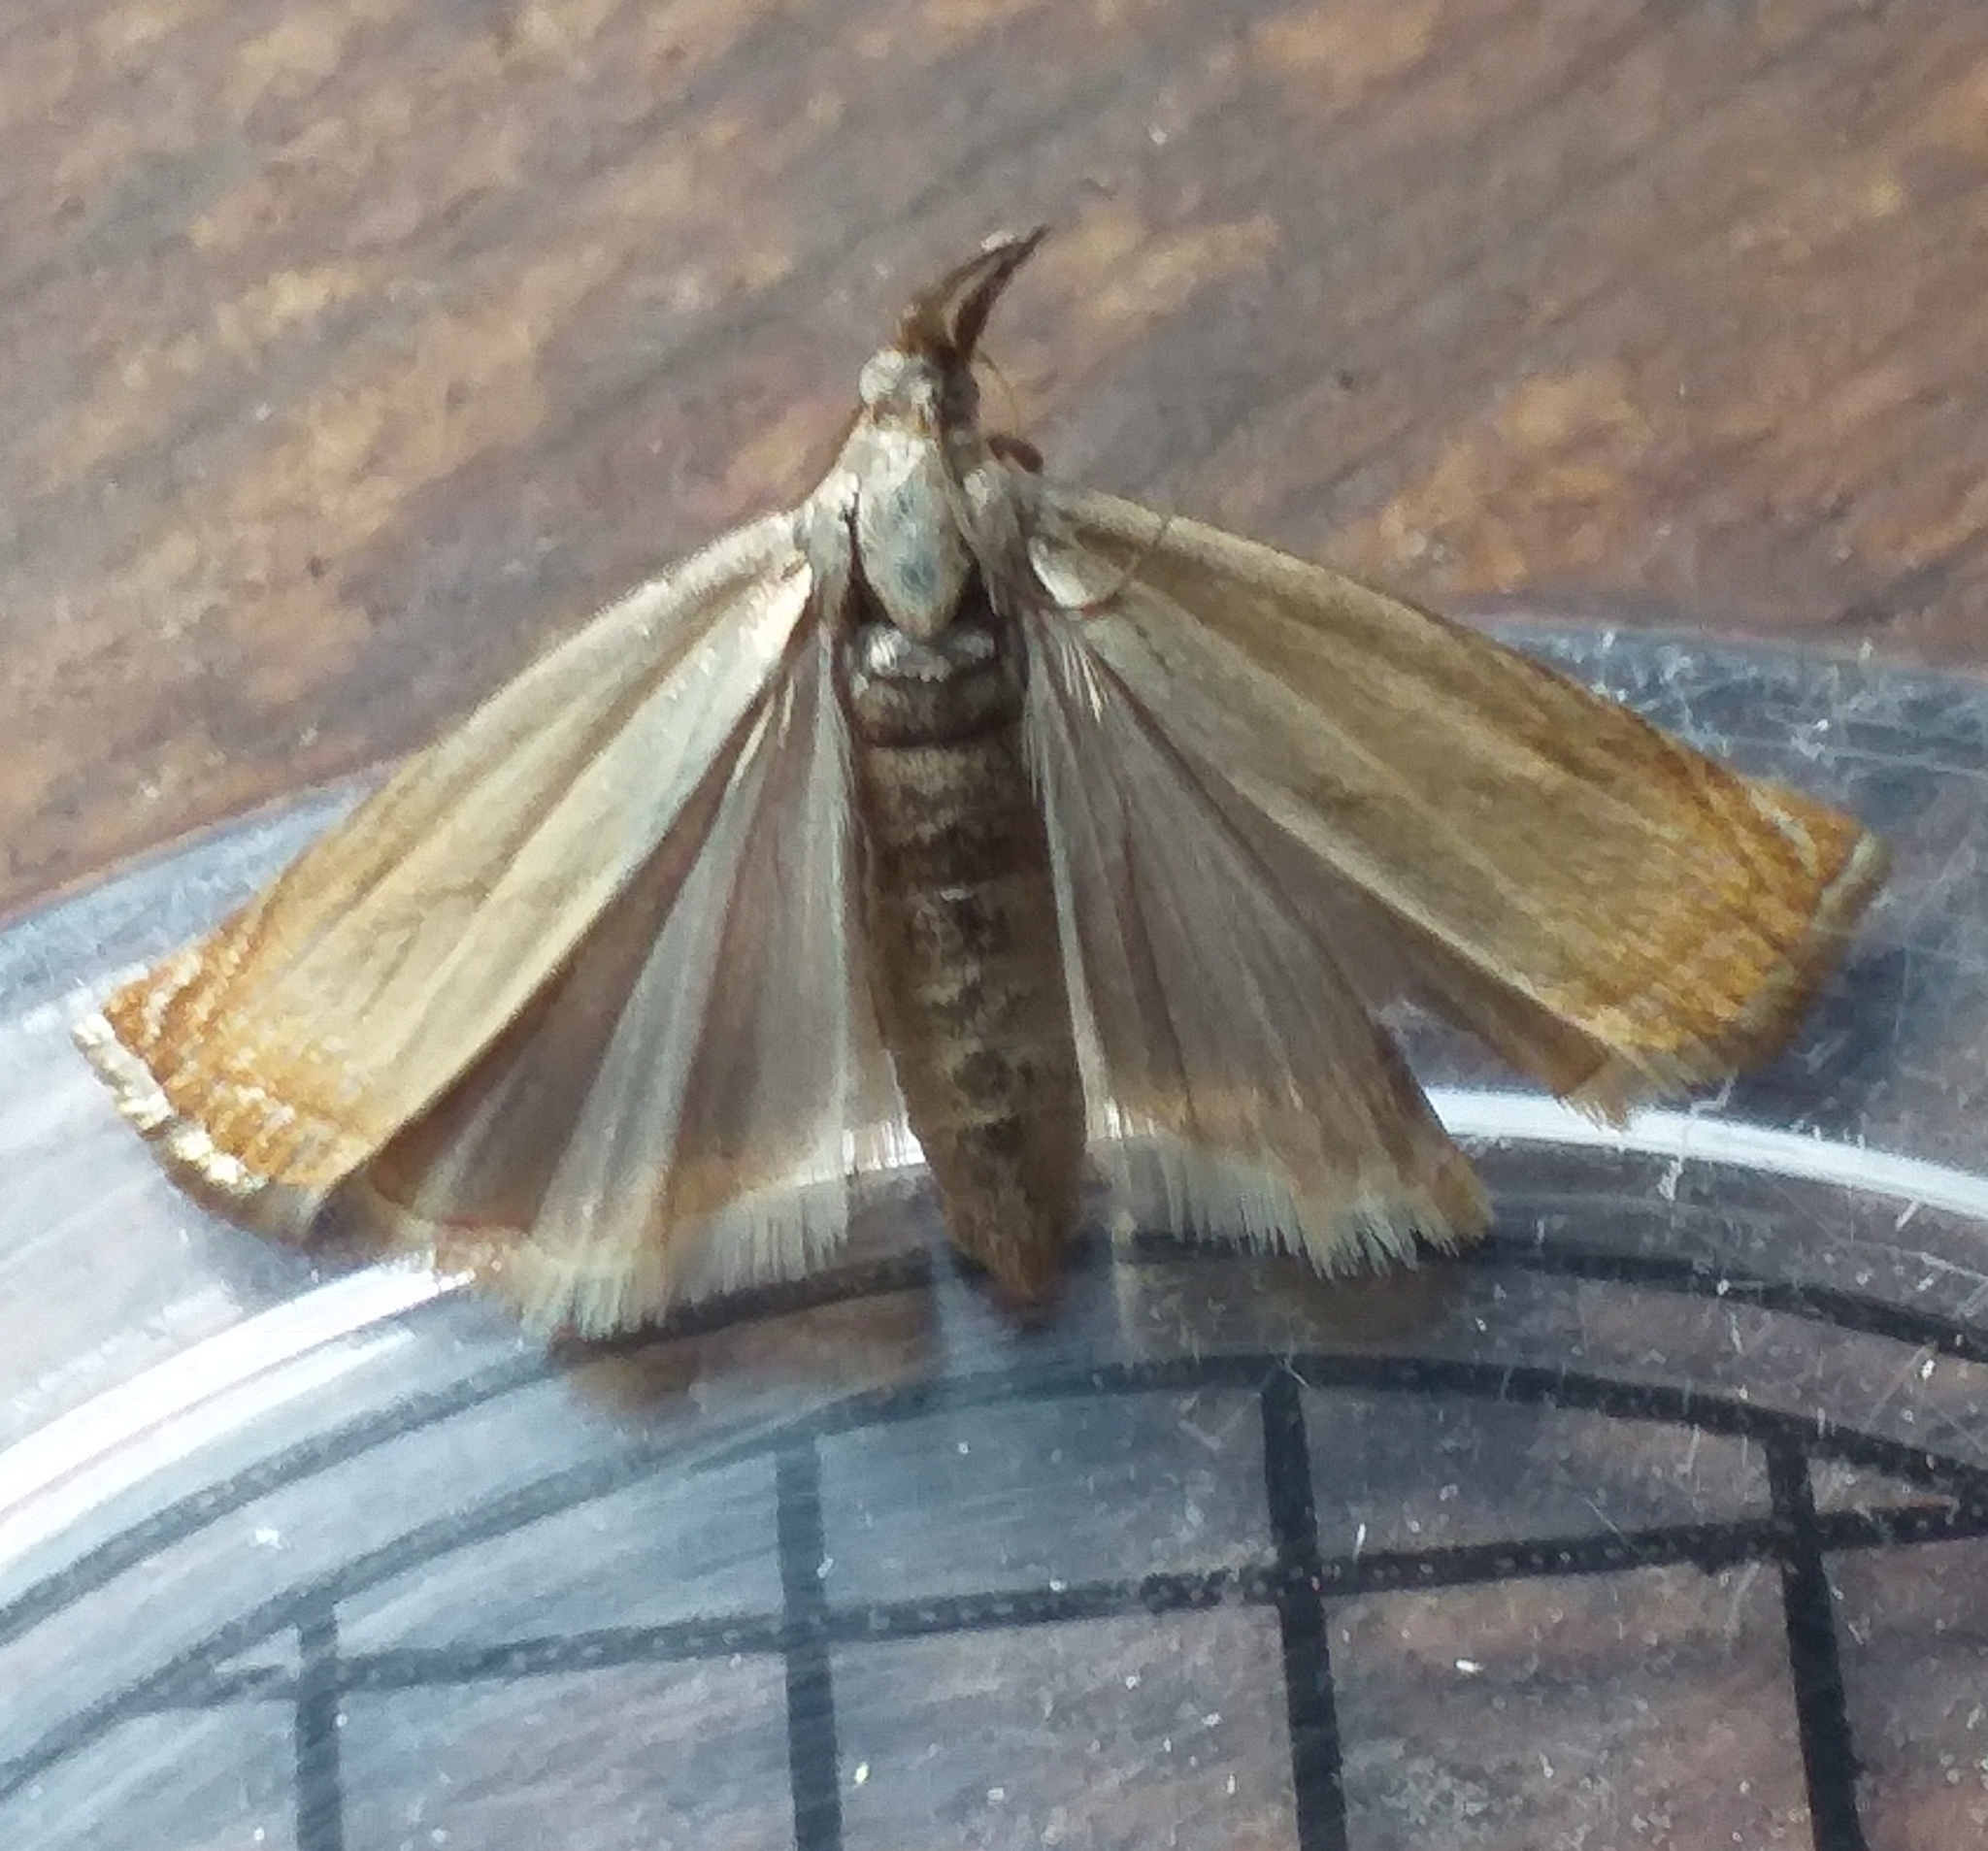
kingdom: Animalia
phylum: Arthropoda
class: Insecta
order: Lepidoptera
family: Crambidae
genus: Chrysoteuchia
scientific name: Chrysoteuchia culmella
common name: Garden grass-veneer
